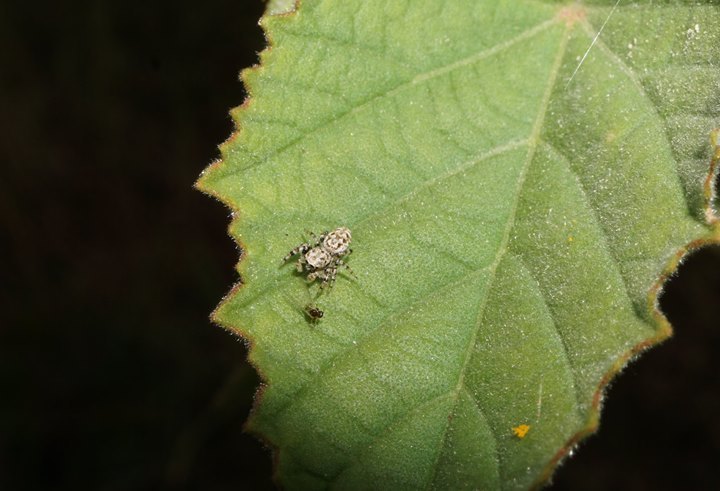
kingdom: Animalia
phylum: Arthropoda
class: Arachnida
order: Araneae
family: Salticidae
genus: Pelegrina
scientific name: Pelegrina galathea
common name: Jumping spiders
